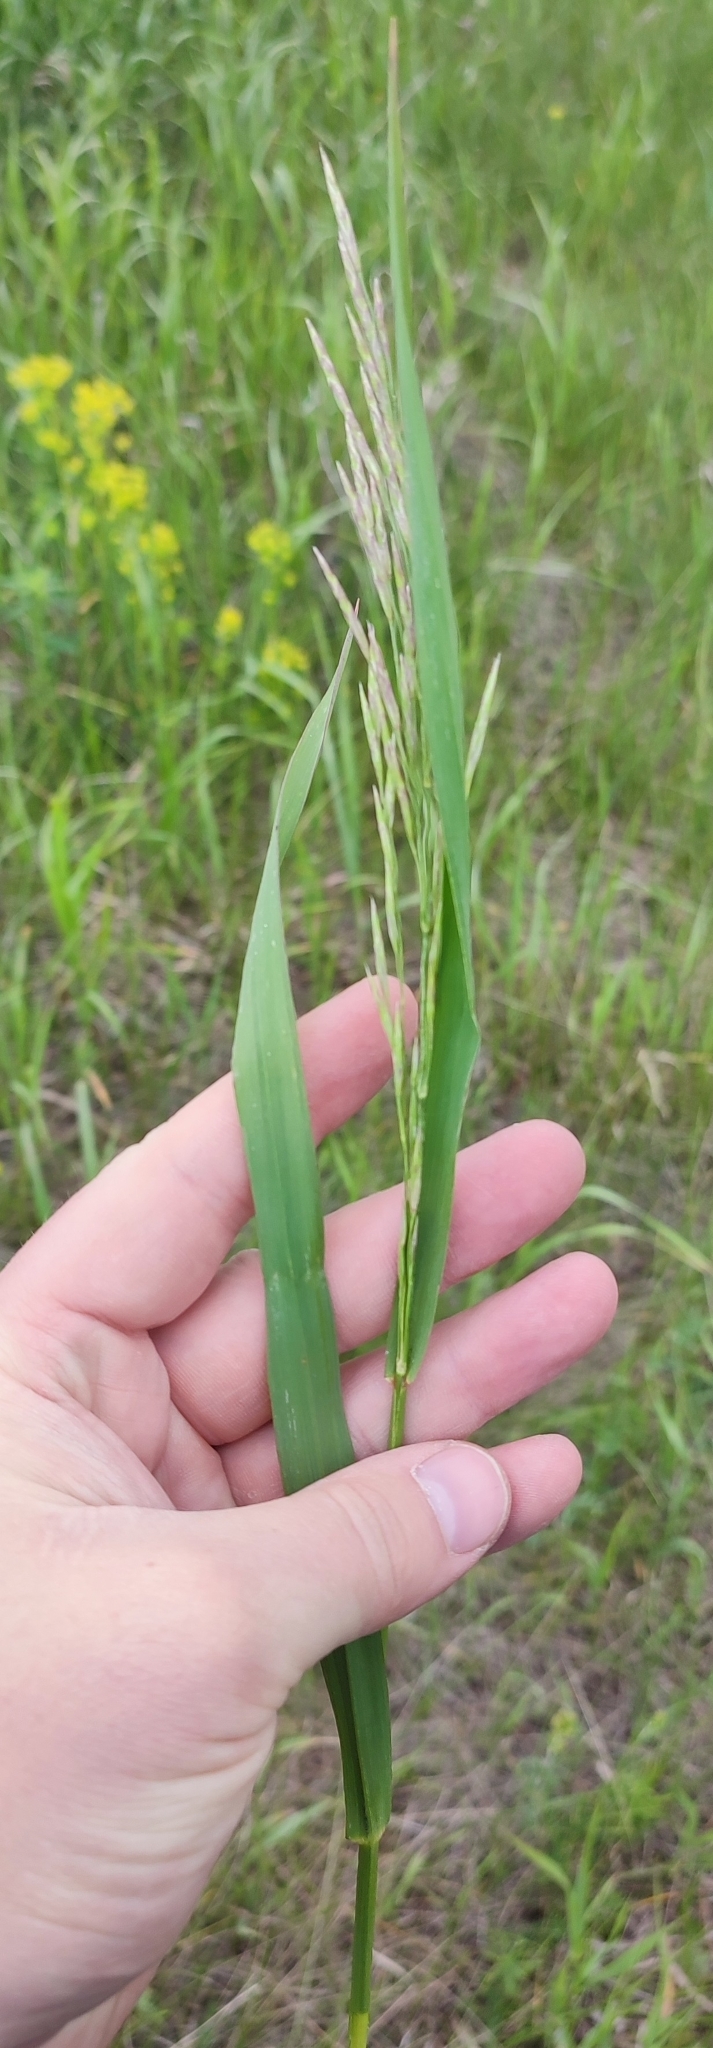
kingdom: Plantae
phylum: Tracheophyta
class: Liliopsida
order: Poales
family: Poaceae
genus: Bromus
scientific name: Bromus inermis
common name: Smooth brome
